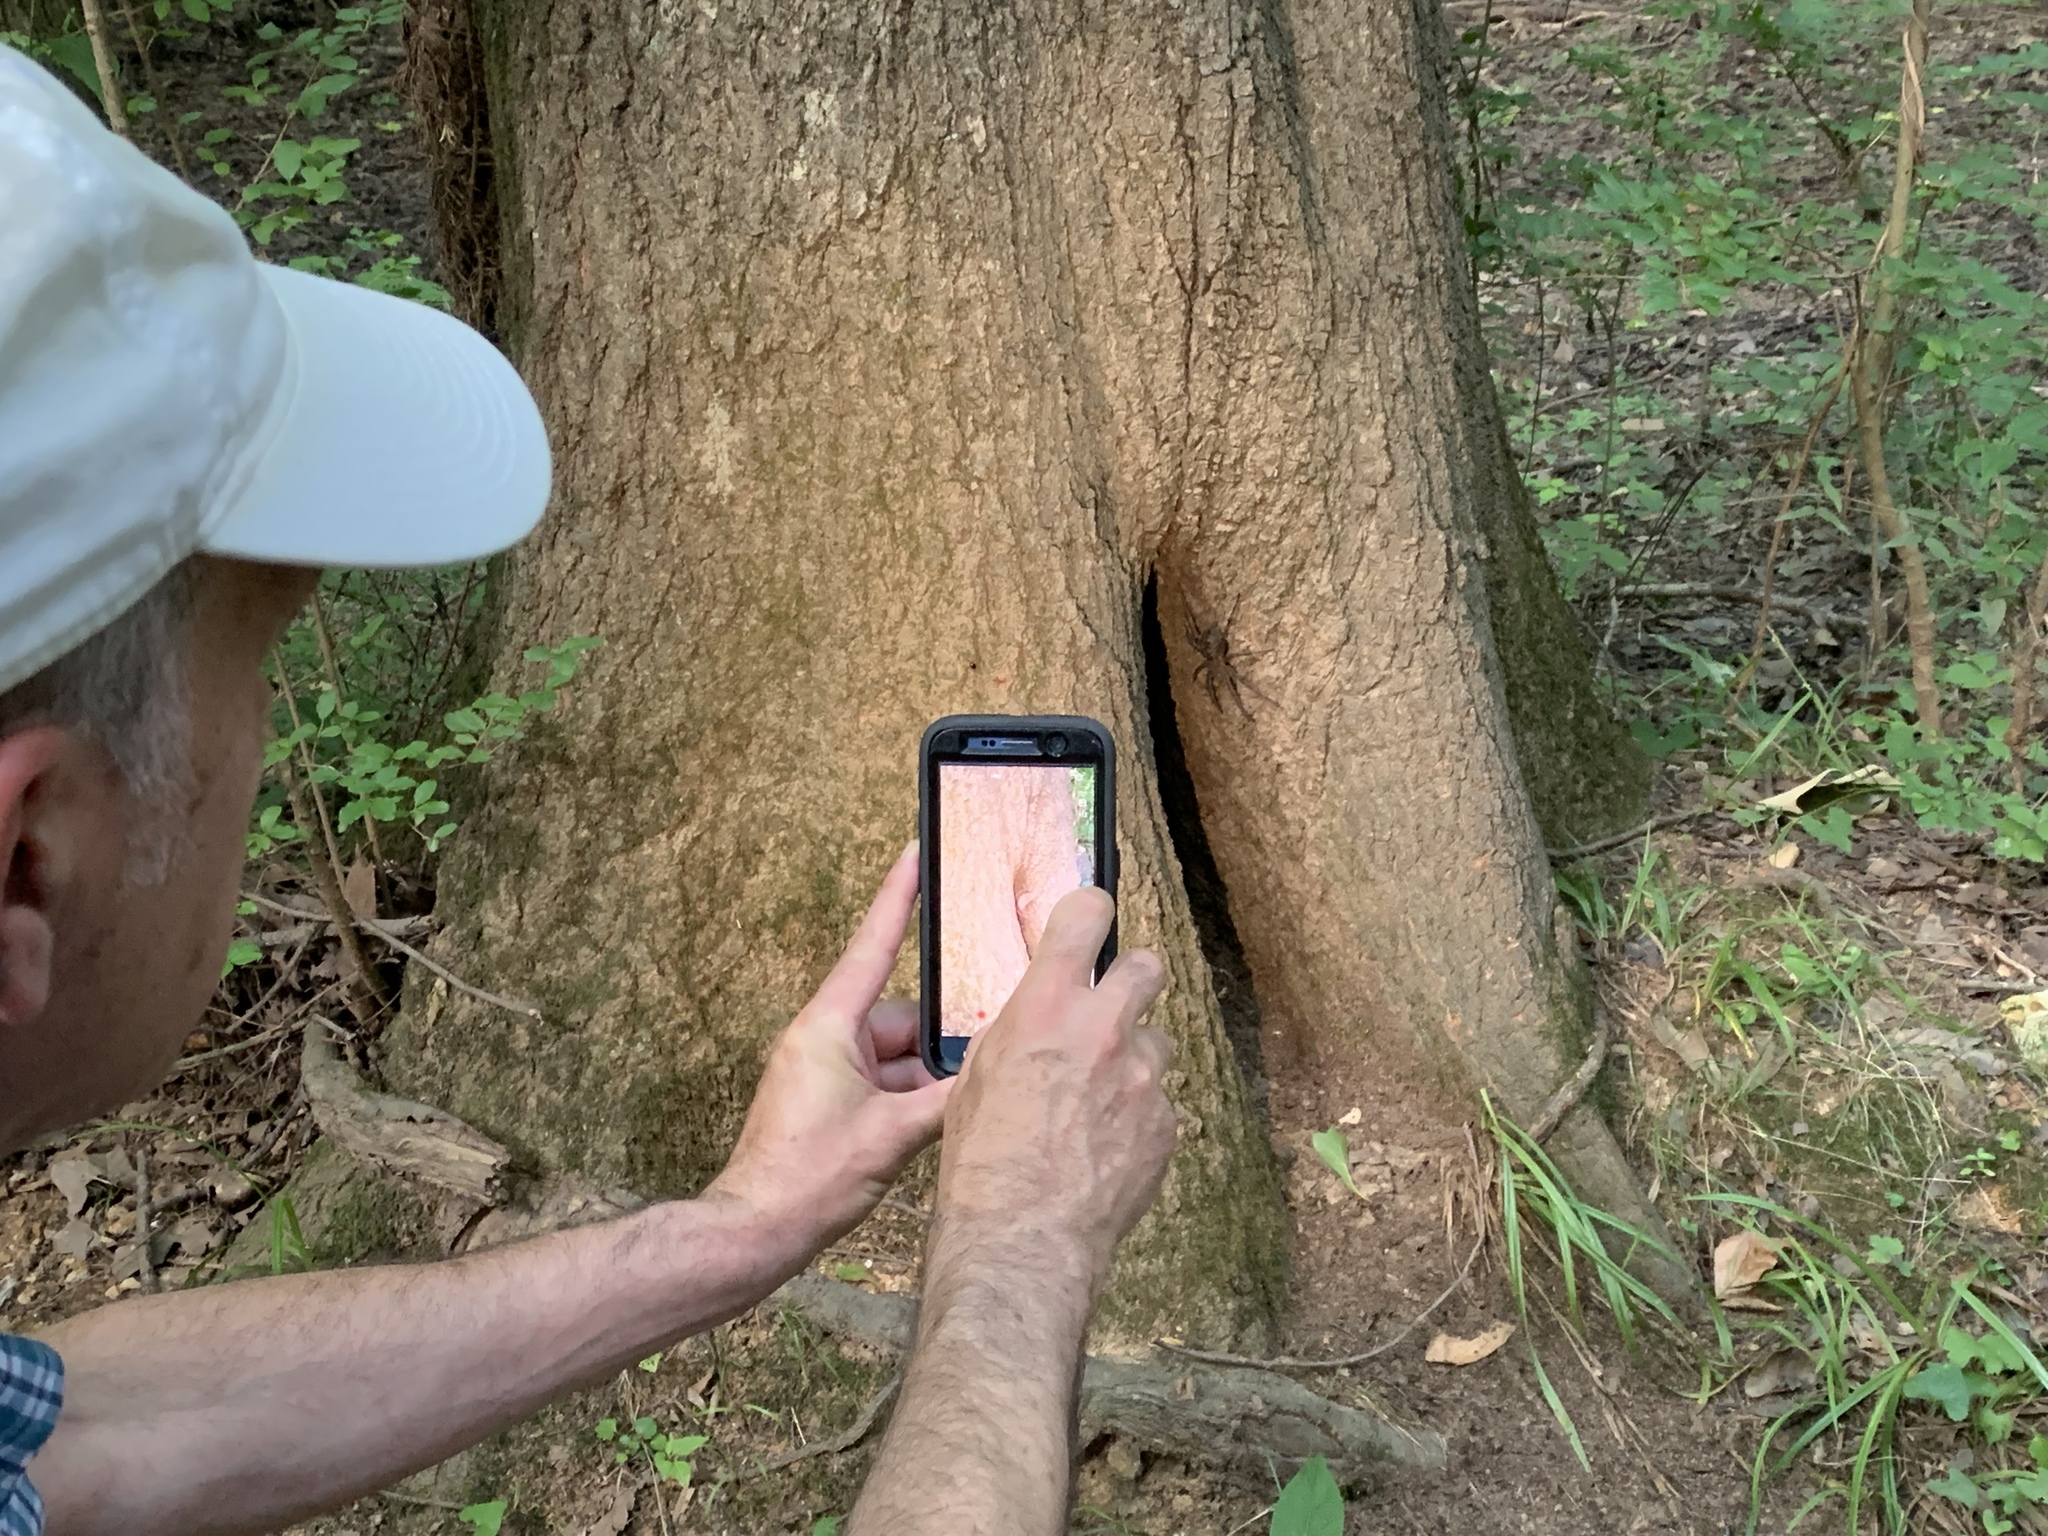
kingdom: Animalia
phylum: Arthropoda
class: Arachnida
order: Araneae
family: Pisauridae
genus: Dolomedes
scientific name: Dolomedes tenebrosus
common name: Dark fishing spider
